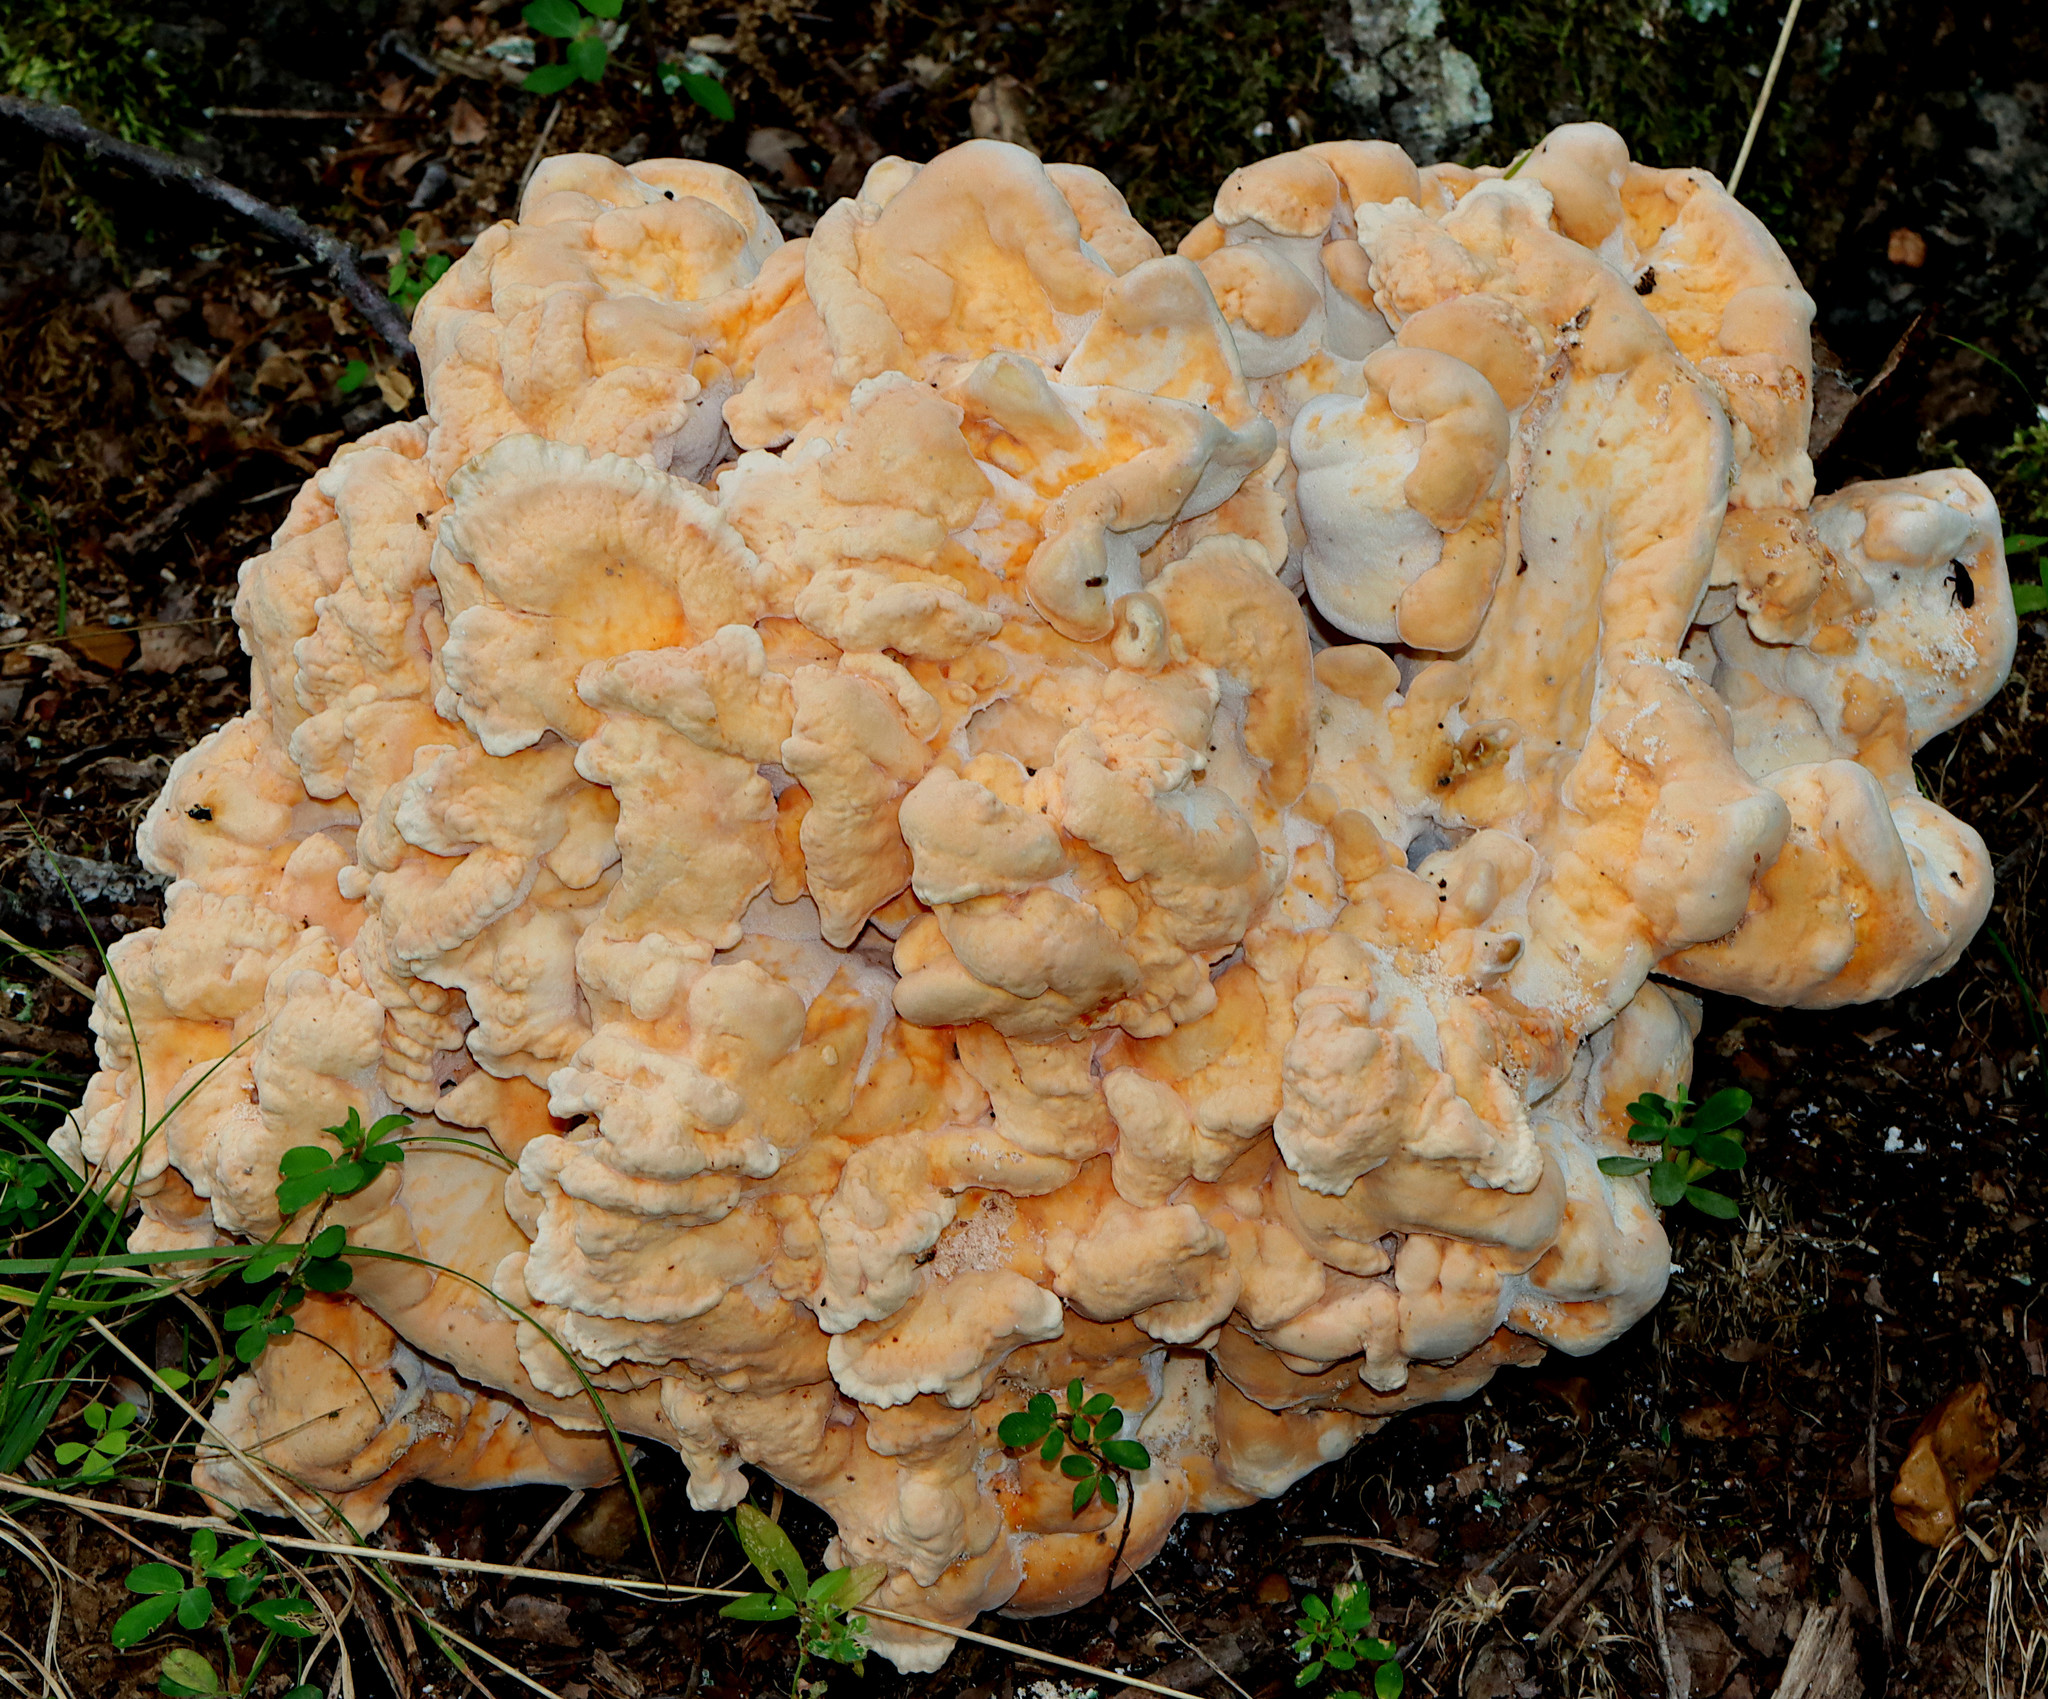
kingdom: Fungi
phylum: Basidiomycota
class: Agaricomycetes
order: Polyporales
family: Laetiporaceae
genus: Laetiporus
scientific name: Laetiporus sulphureus
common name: Chicken of the woods
